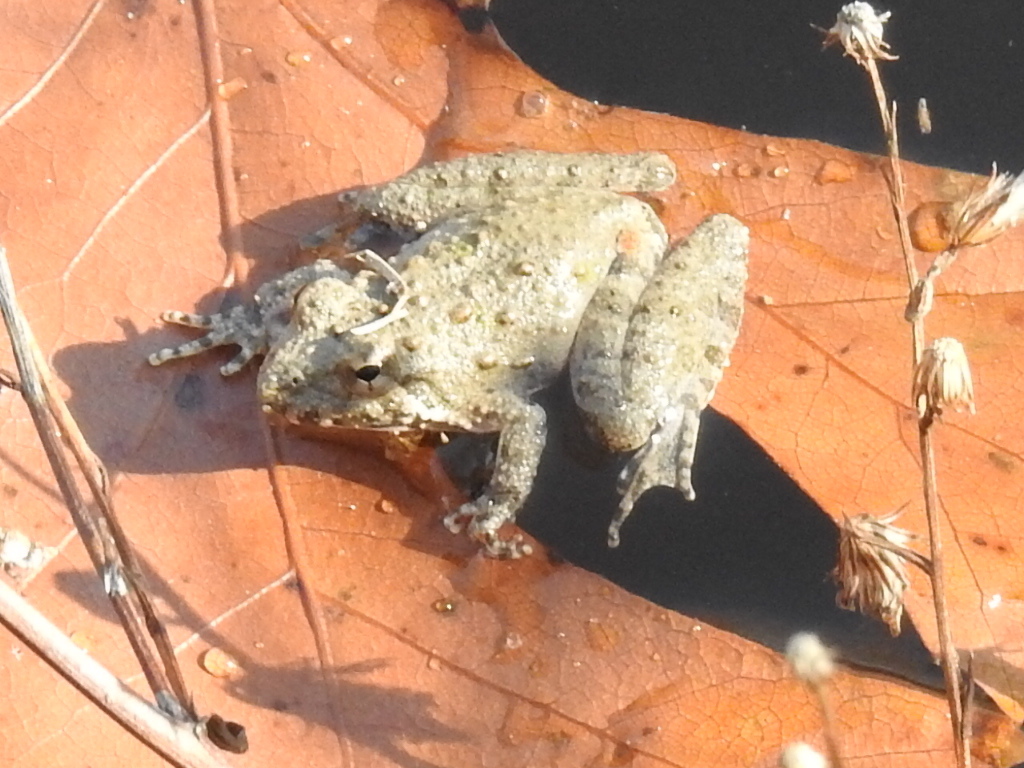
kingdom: Animalia
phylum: Chordata
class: Amphibia
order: Anura
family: Hylidae
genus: Acris
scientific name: Acris blanchardi
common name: Blanchard's cricket frog
